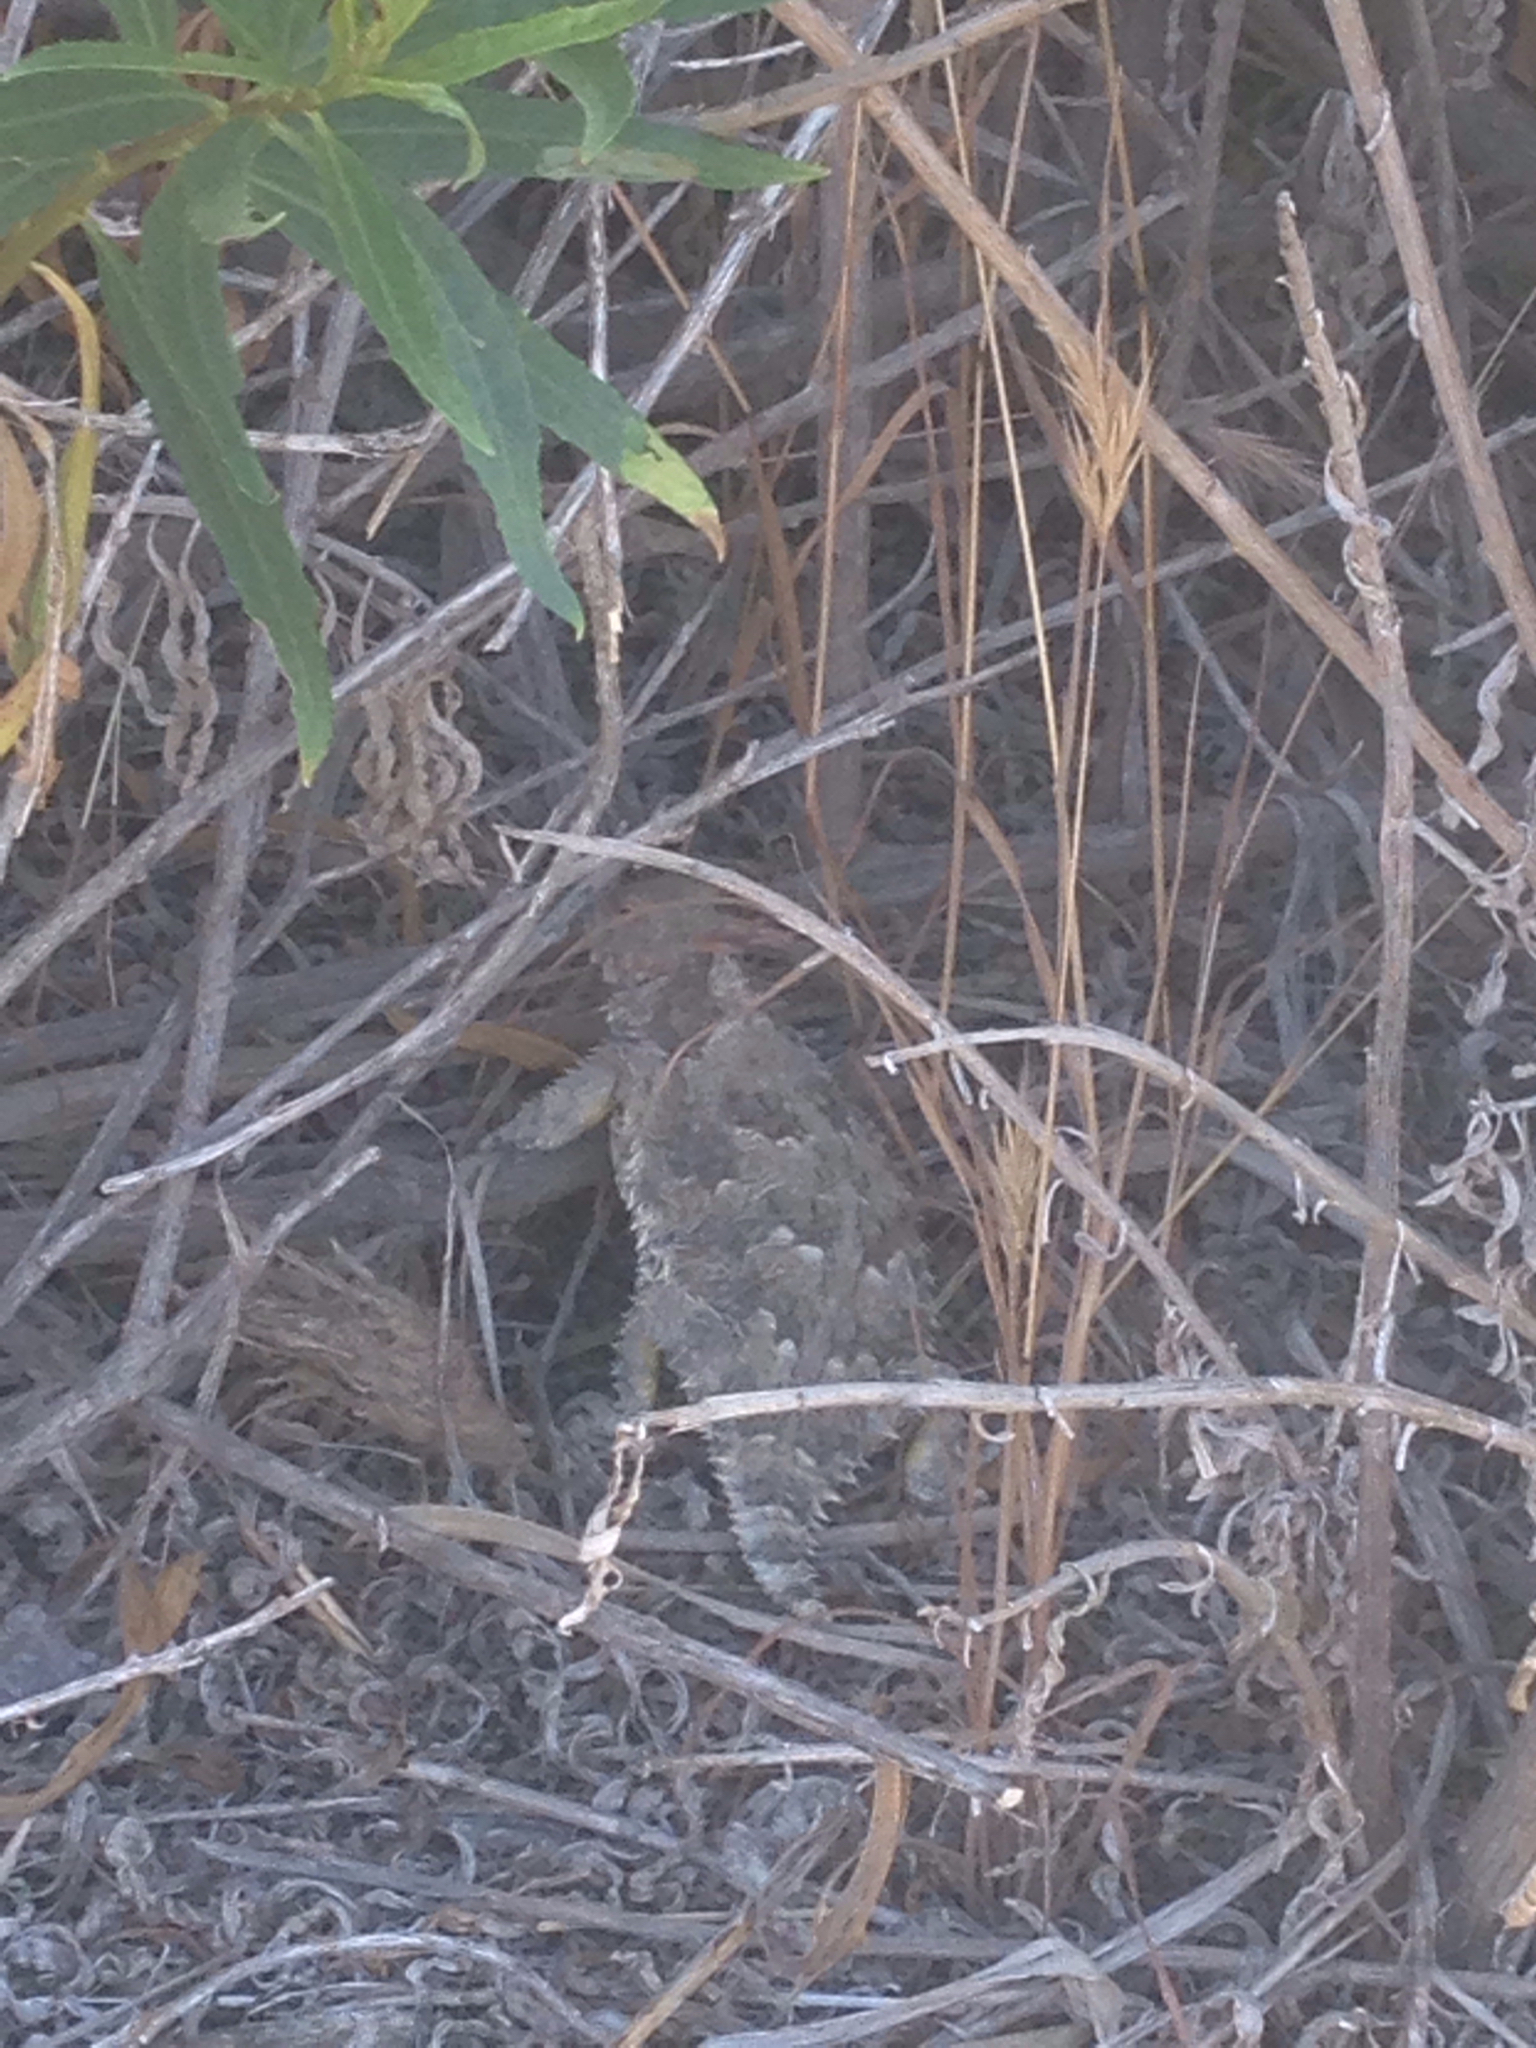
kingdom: Animalia
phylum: Chordata
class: Squamata
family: Phrynosomatidae
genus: Phrynosoma
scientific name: Phrynosoma blainvillii
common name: San diego horned lizard
